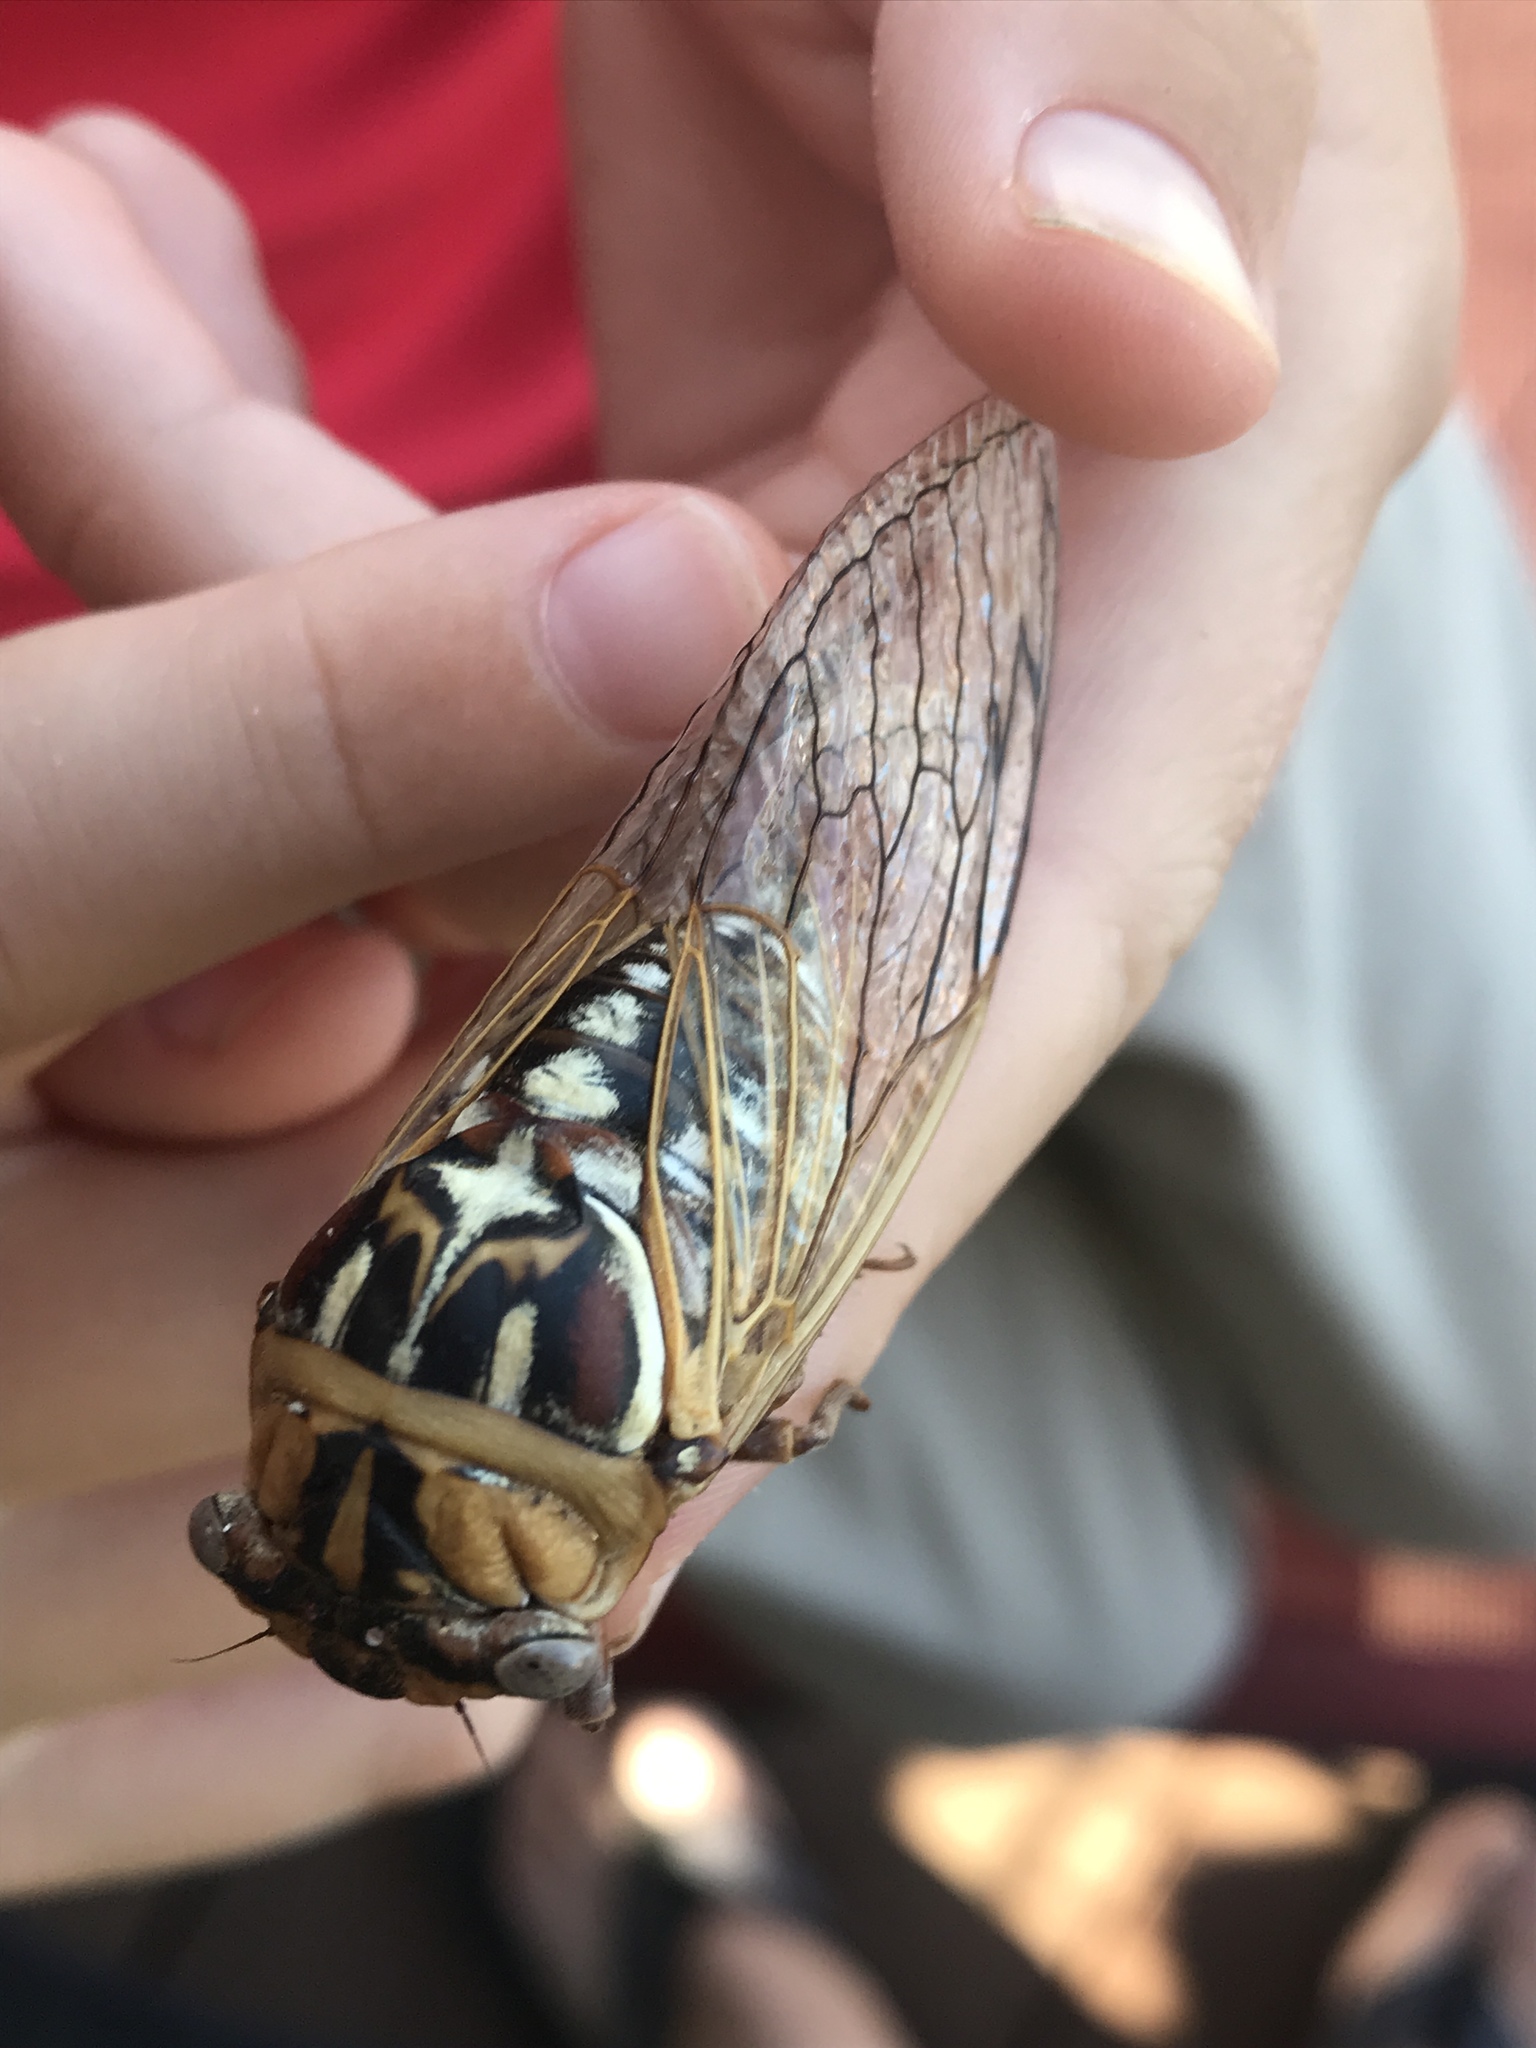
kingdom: Animalia
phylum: Arthropoda
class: Insecta
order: Hemiptera
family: Cicadidae
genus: Megatibicen
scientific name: Megatibicen dealbatus
